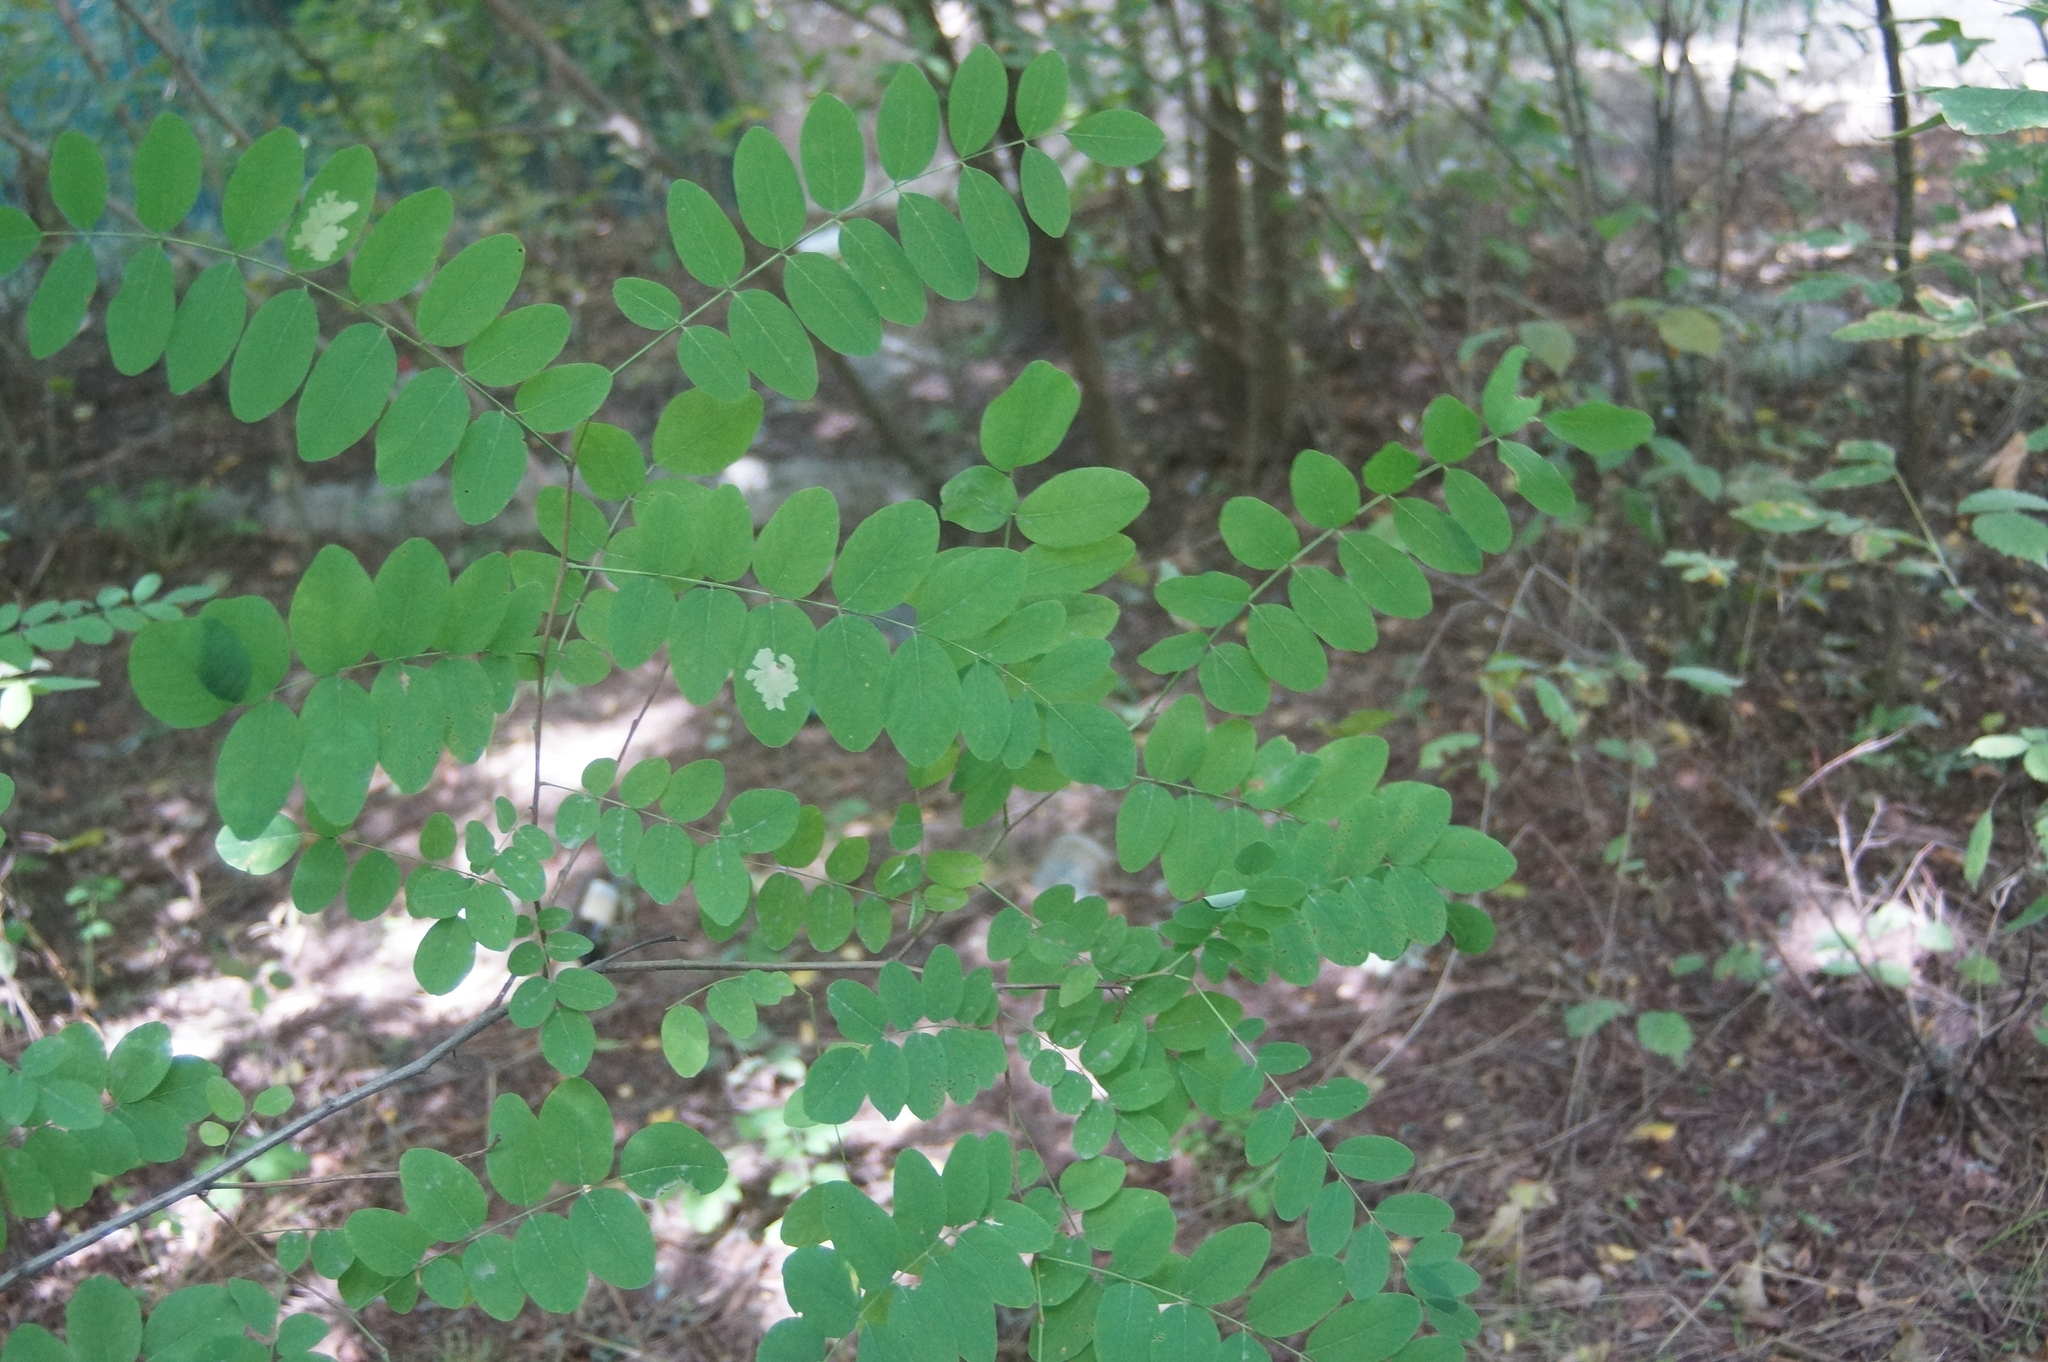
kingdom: Plantae
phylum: Tracheophyta
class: Magnoliopsida
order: Fabales
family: Fabaceae
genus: Robinia
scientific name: Robinia pseudoacacia
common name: Black locust
